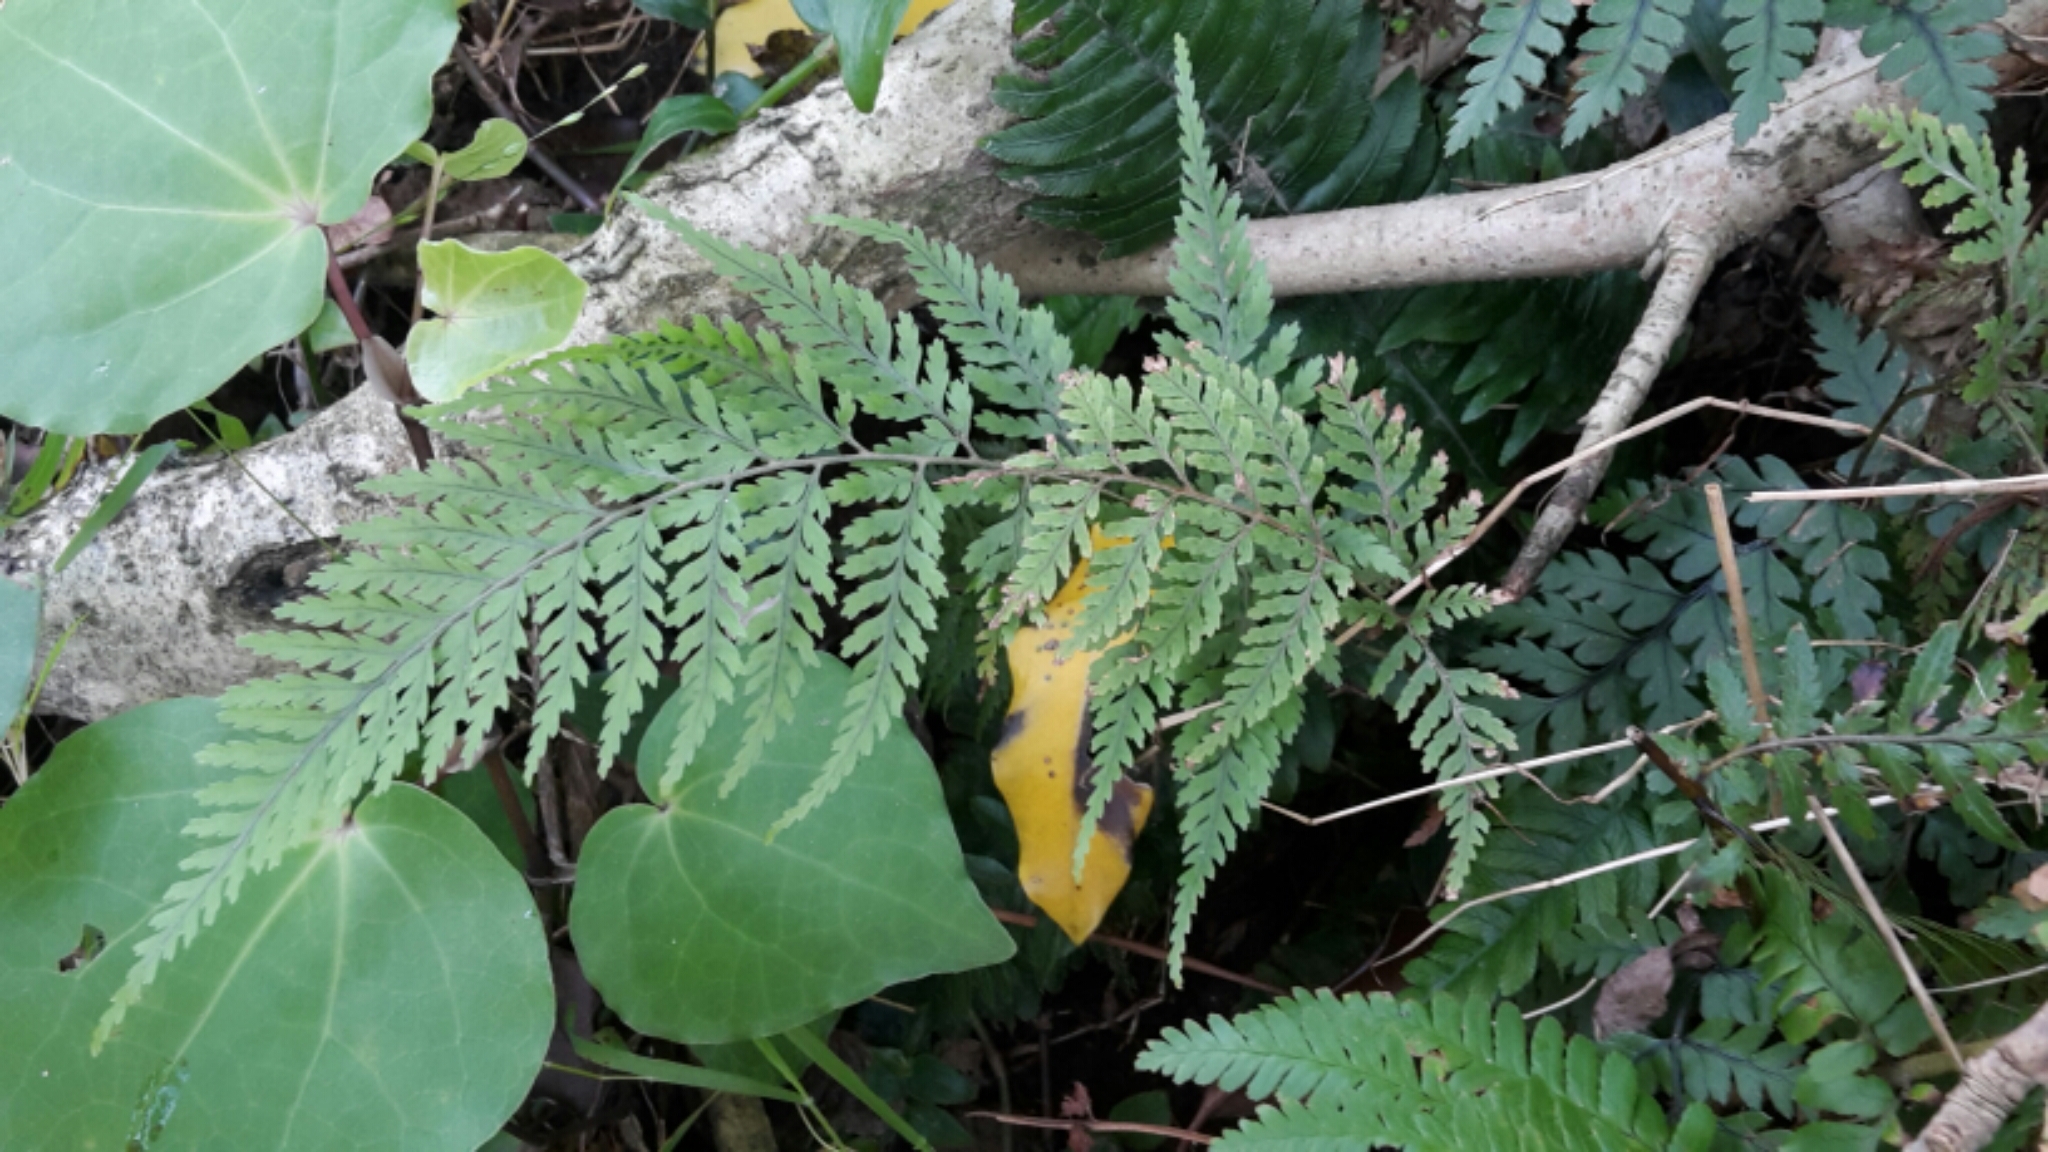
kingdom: Plantae
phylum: Tracheophyta
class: Polypodiopsida
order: Polypodiales
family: Dryopteridaceae
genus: Parapolystichum
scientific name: Parapolystichum glabellum
